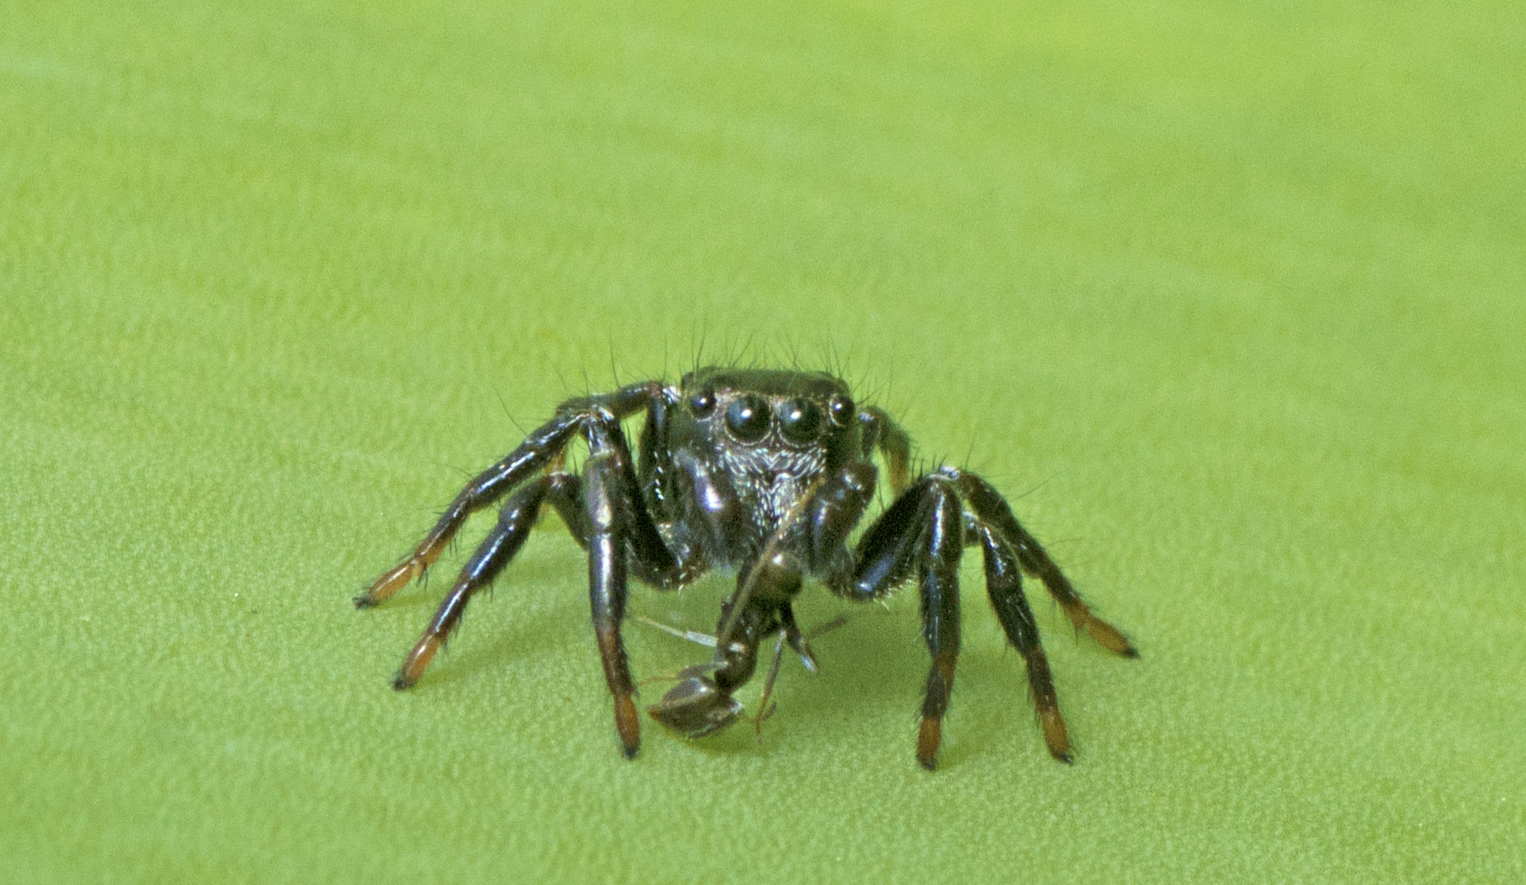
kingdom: Animalia
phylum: Arthropoda
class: Arachnida
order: Araneae
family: Salticidae
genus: Zenodorus
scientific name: Zenodorus orbiculatus
